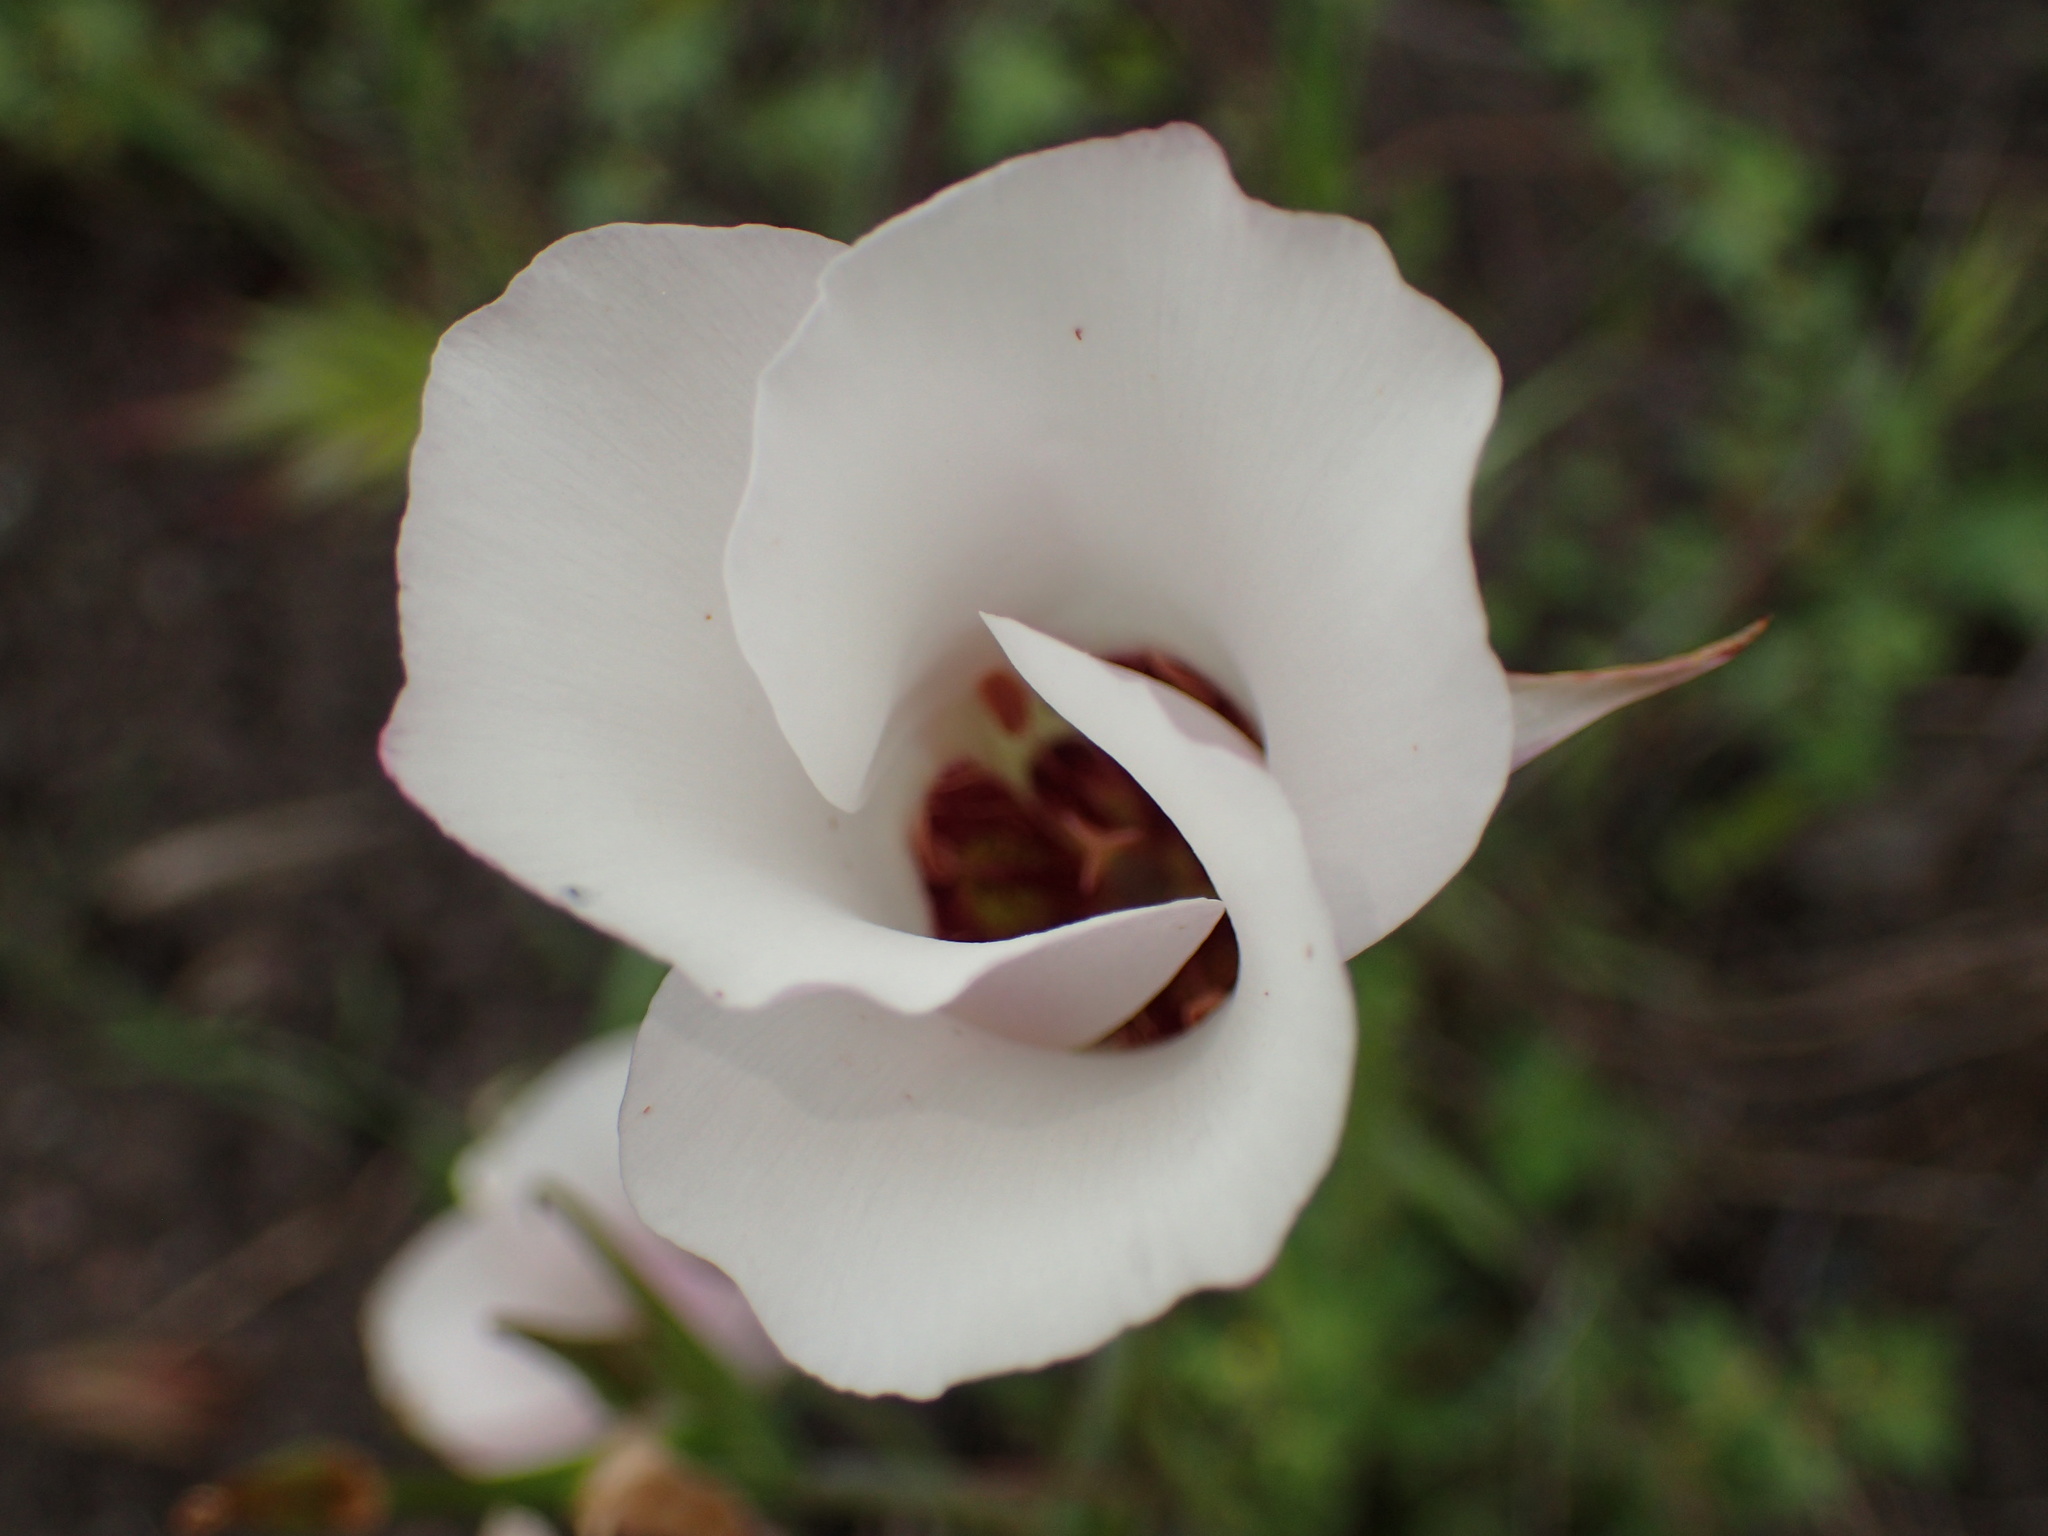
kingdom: Plantae
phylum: Tracheophyta
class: Liliopsida
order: Liliales
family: Liliaceae
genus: Calochortus
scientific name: Calochortus catalinae
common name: Catalina mariposa-lily
